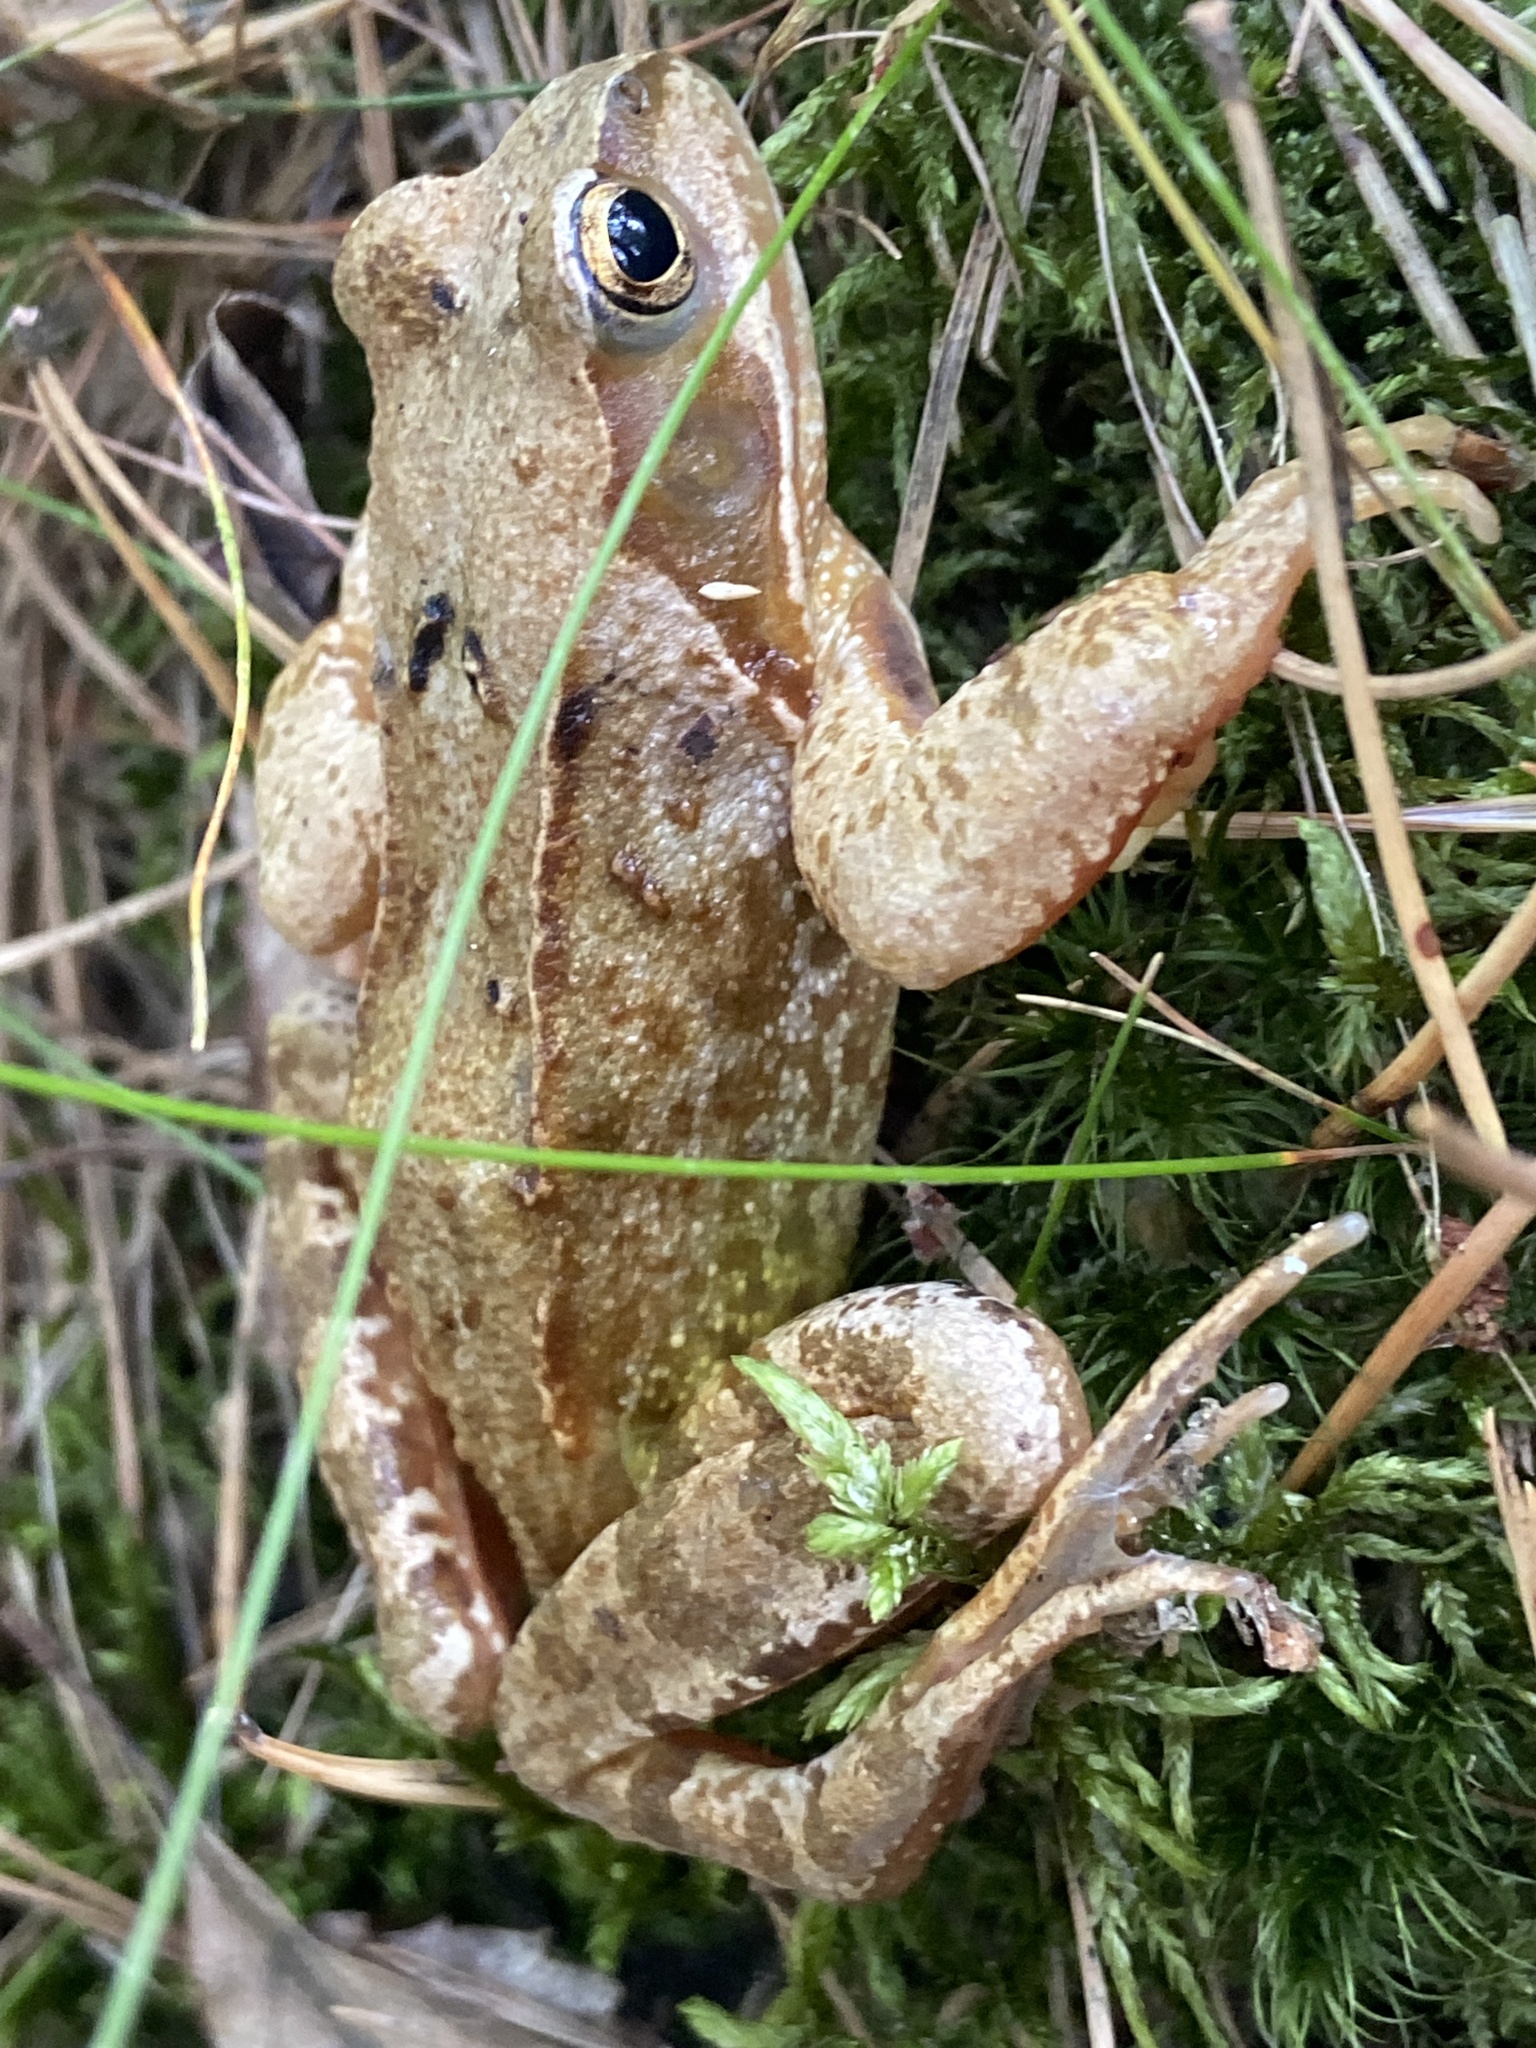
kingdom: Animalia
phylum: Chordata
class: Amphibia
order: Anura
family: Ranidae
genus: Rana
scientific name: Rana temporaria
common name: Common frog
